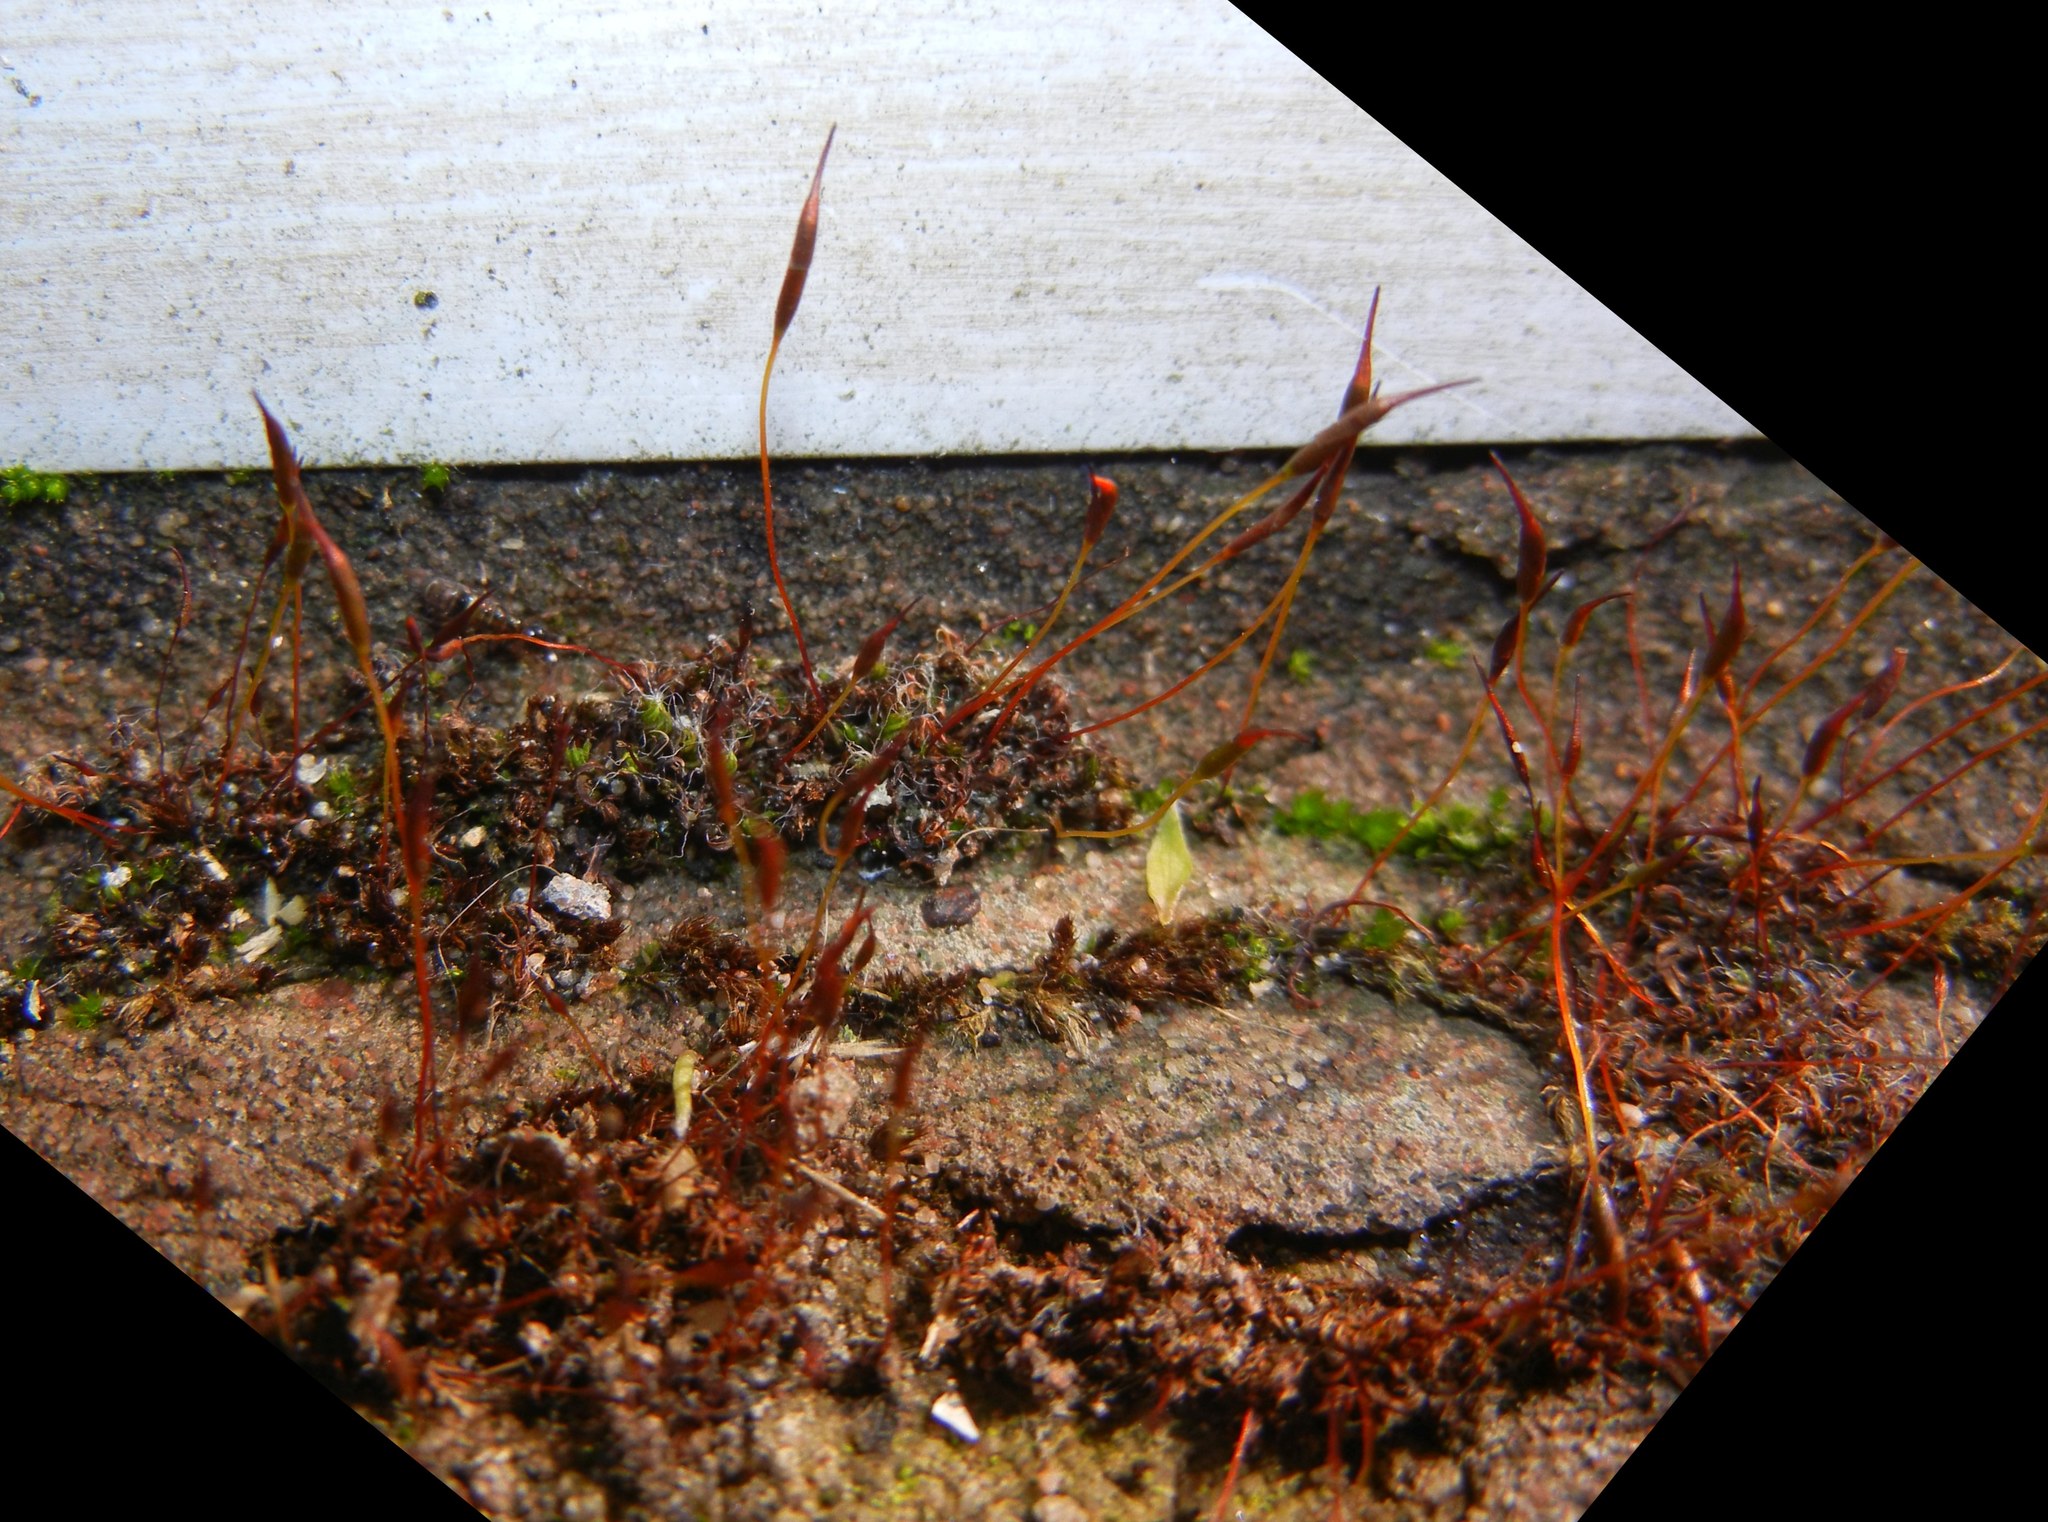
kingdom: Plantae
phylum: Bryophyta
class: Bryopsida
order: Pottiales
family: Pottiaceae
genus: Tortula
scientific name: Tortula muralis
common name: Wall screw-moss
